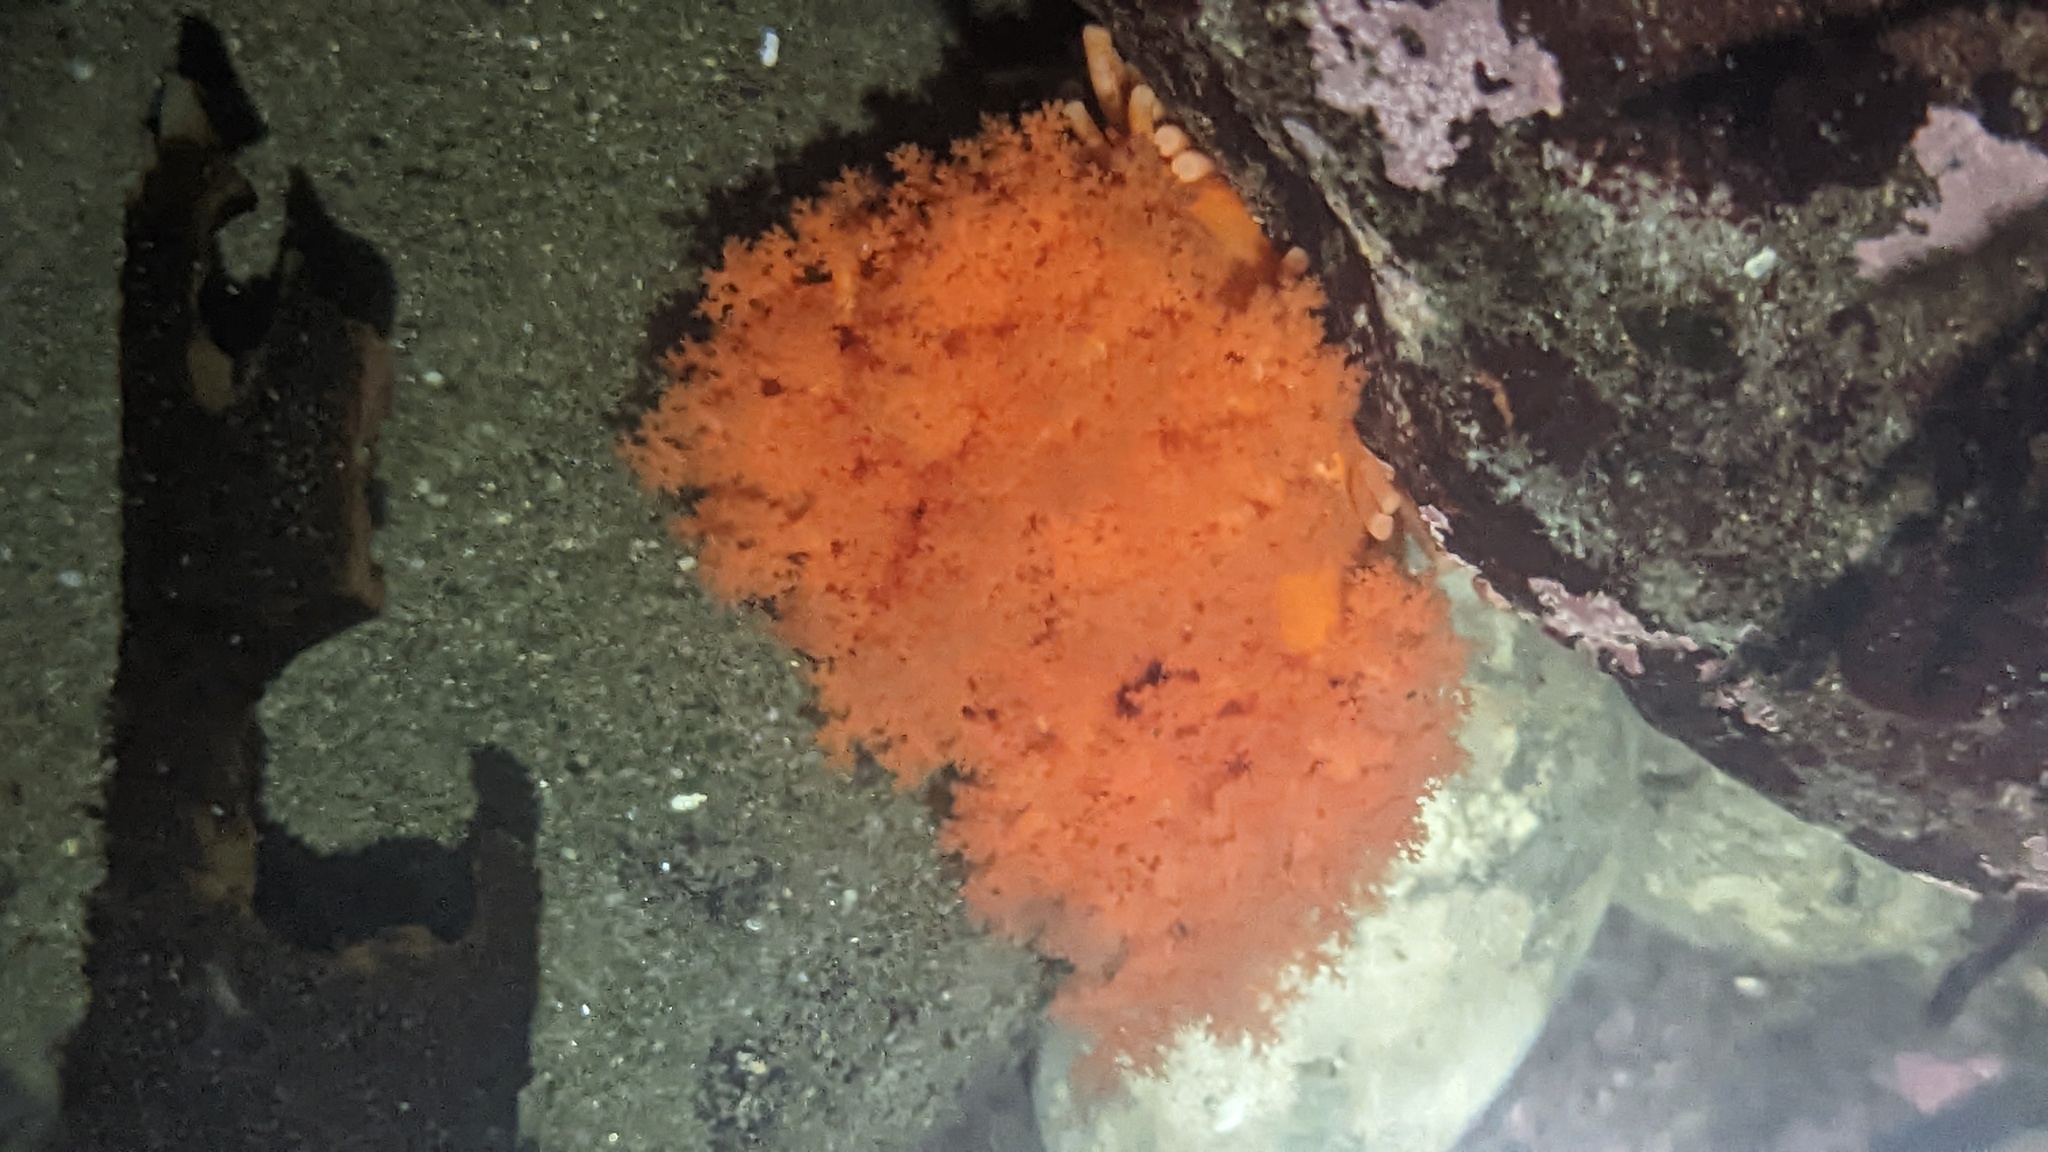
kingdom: Animalia
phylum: Echinodermata
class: Holothuroidea
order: Dendrochirotida
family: Cucumariidae
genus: Cucumaria
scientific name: Cucumaria miniata
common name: Orange sea cucumber
